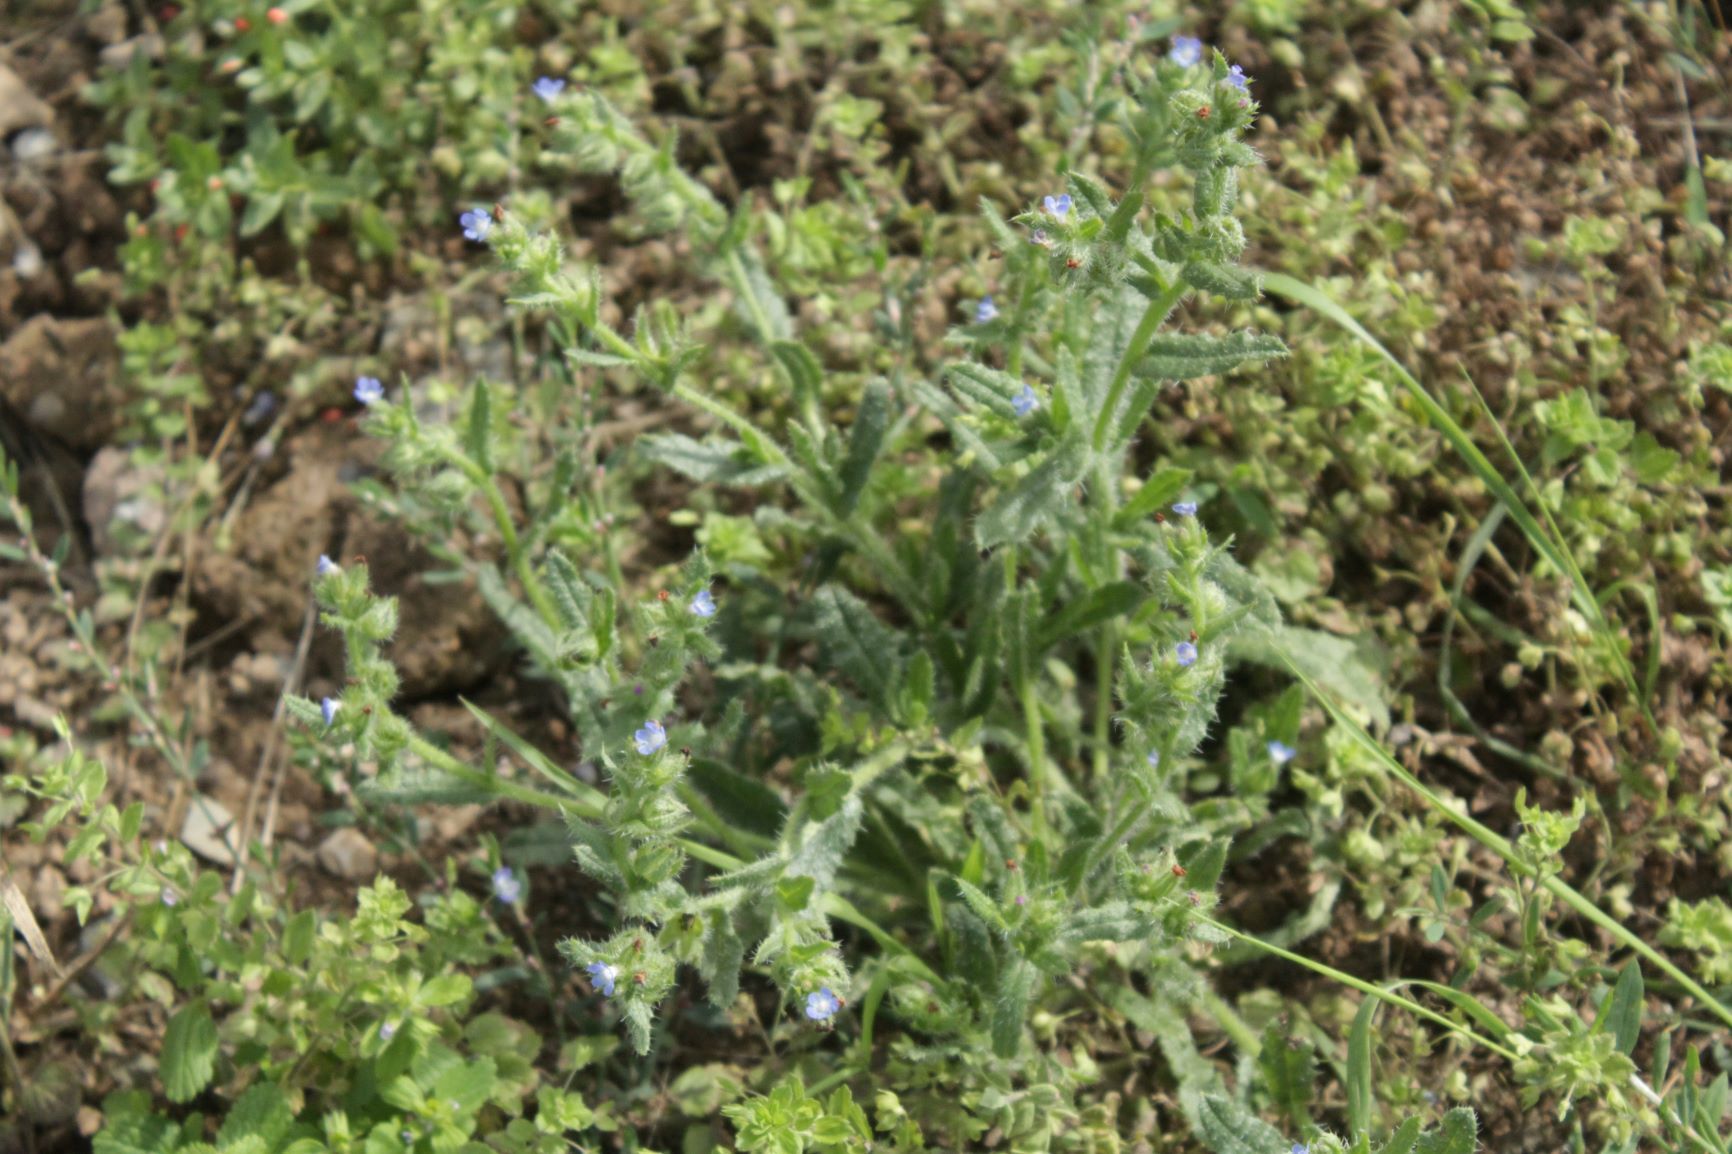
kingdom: Plantae
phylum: Tracheophyta
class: Magnoliopsida
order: Boraginales
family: Boraginaceae
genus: Lycopsis
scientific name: Lycopsis arvensis
